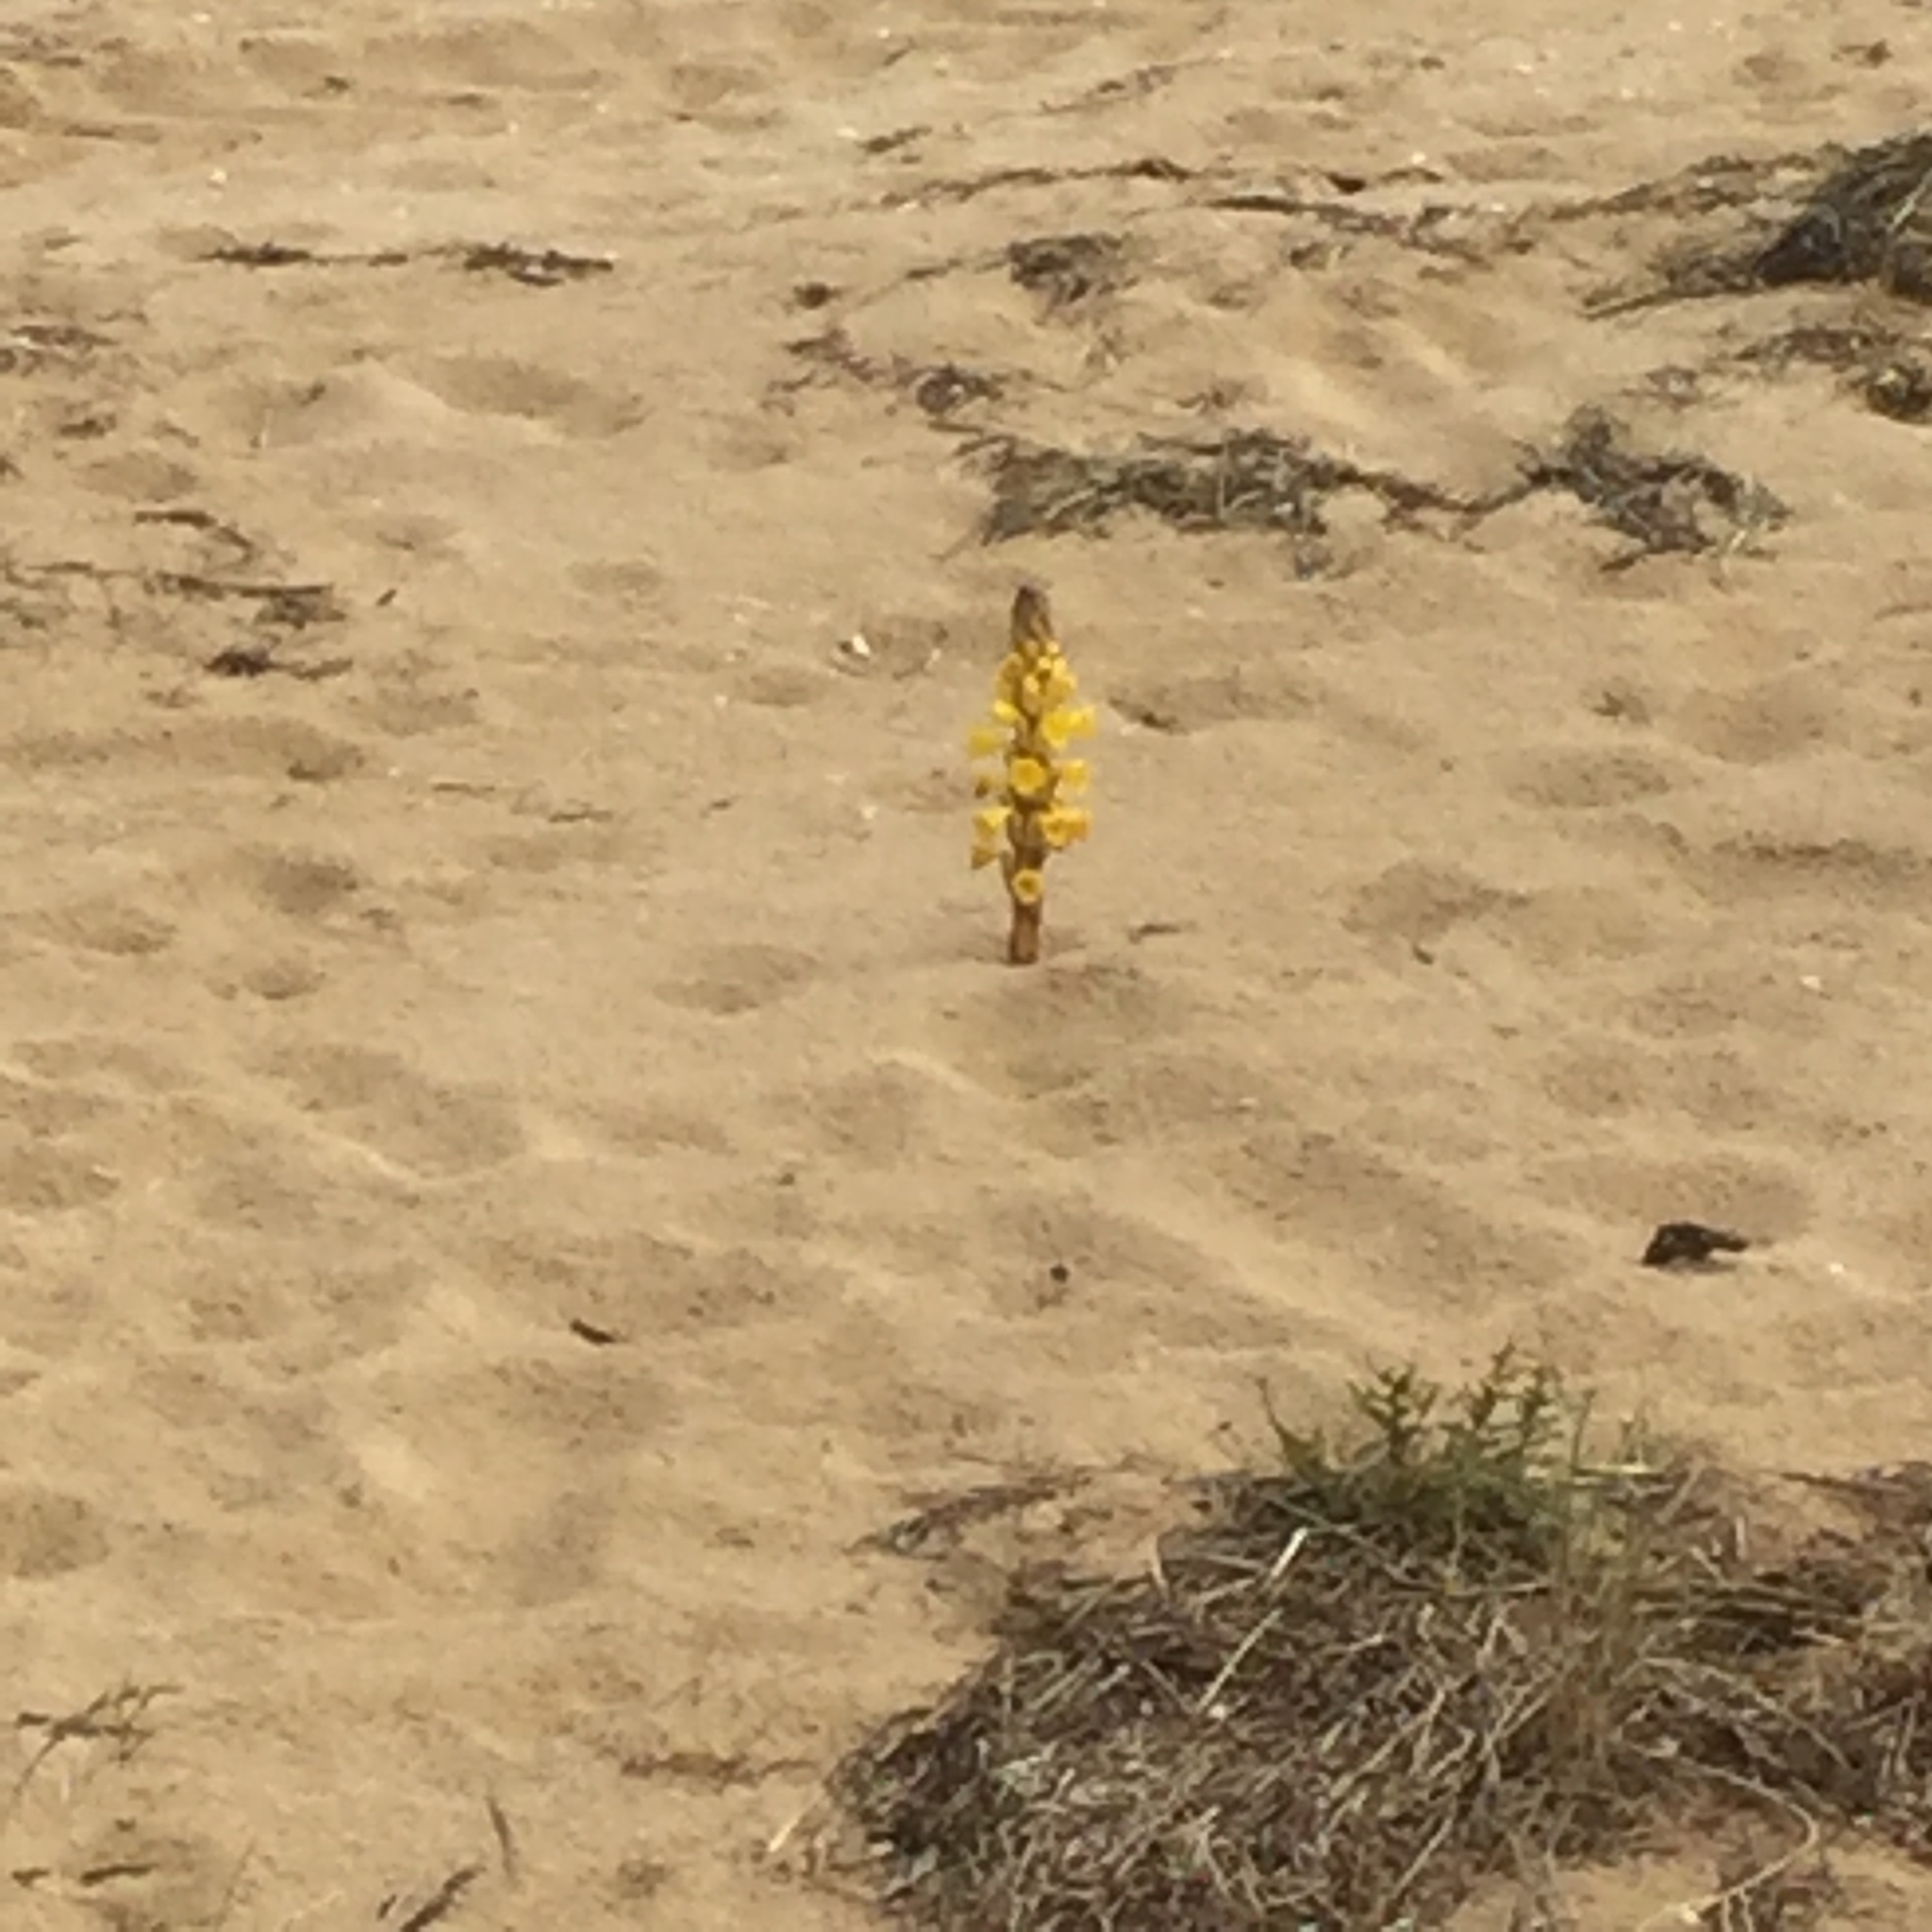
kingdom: Plantae
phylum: Tracheophyta
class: Magnoliopsida
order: Lamiales
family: Orobanchaceae
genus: Cistanche
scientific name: Cistanche phelypaea
